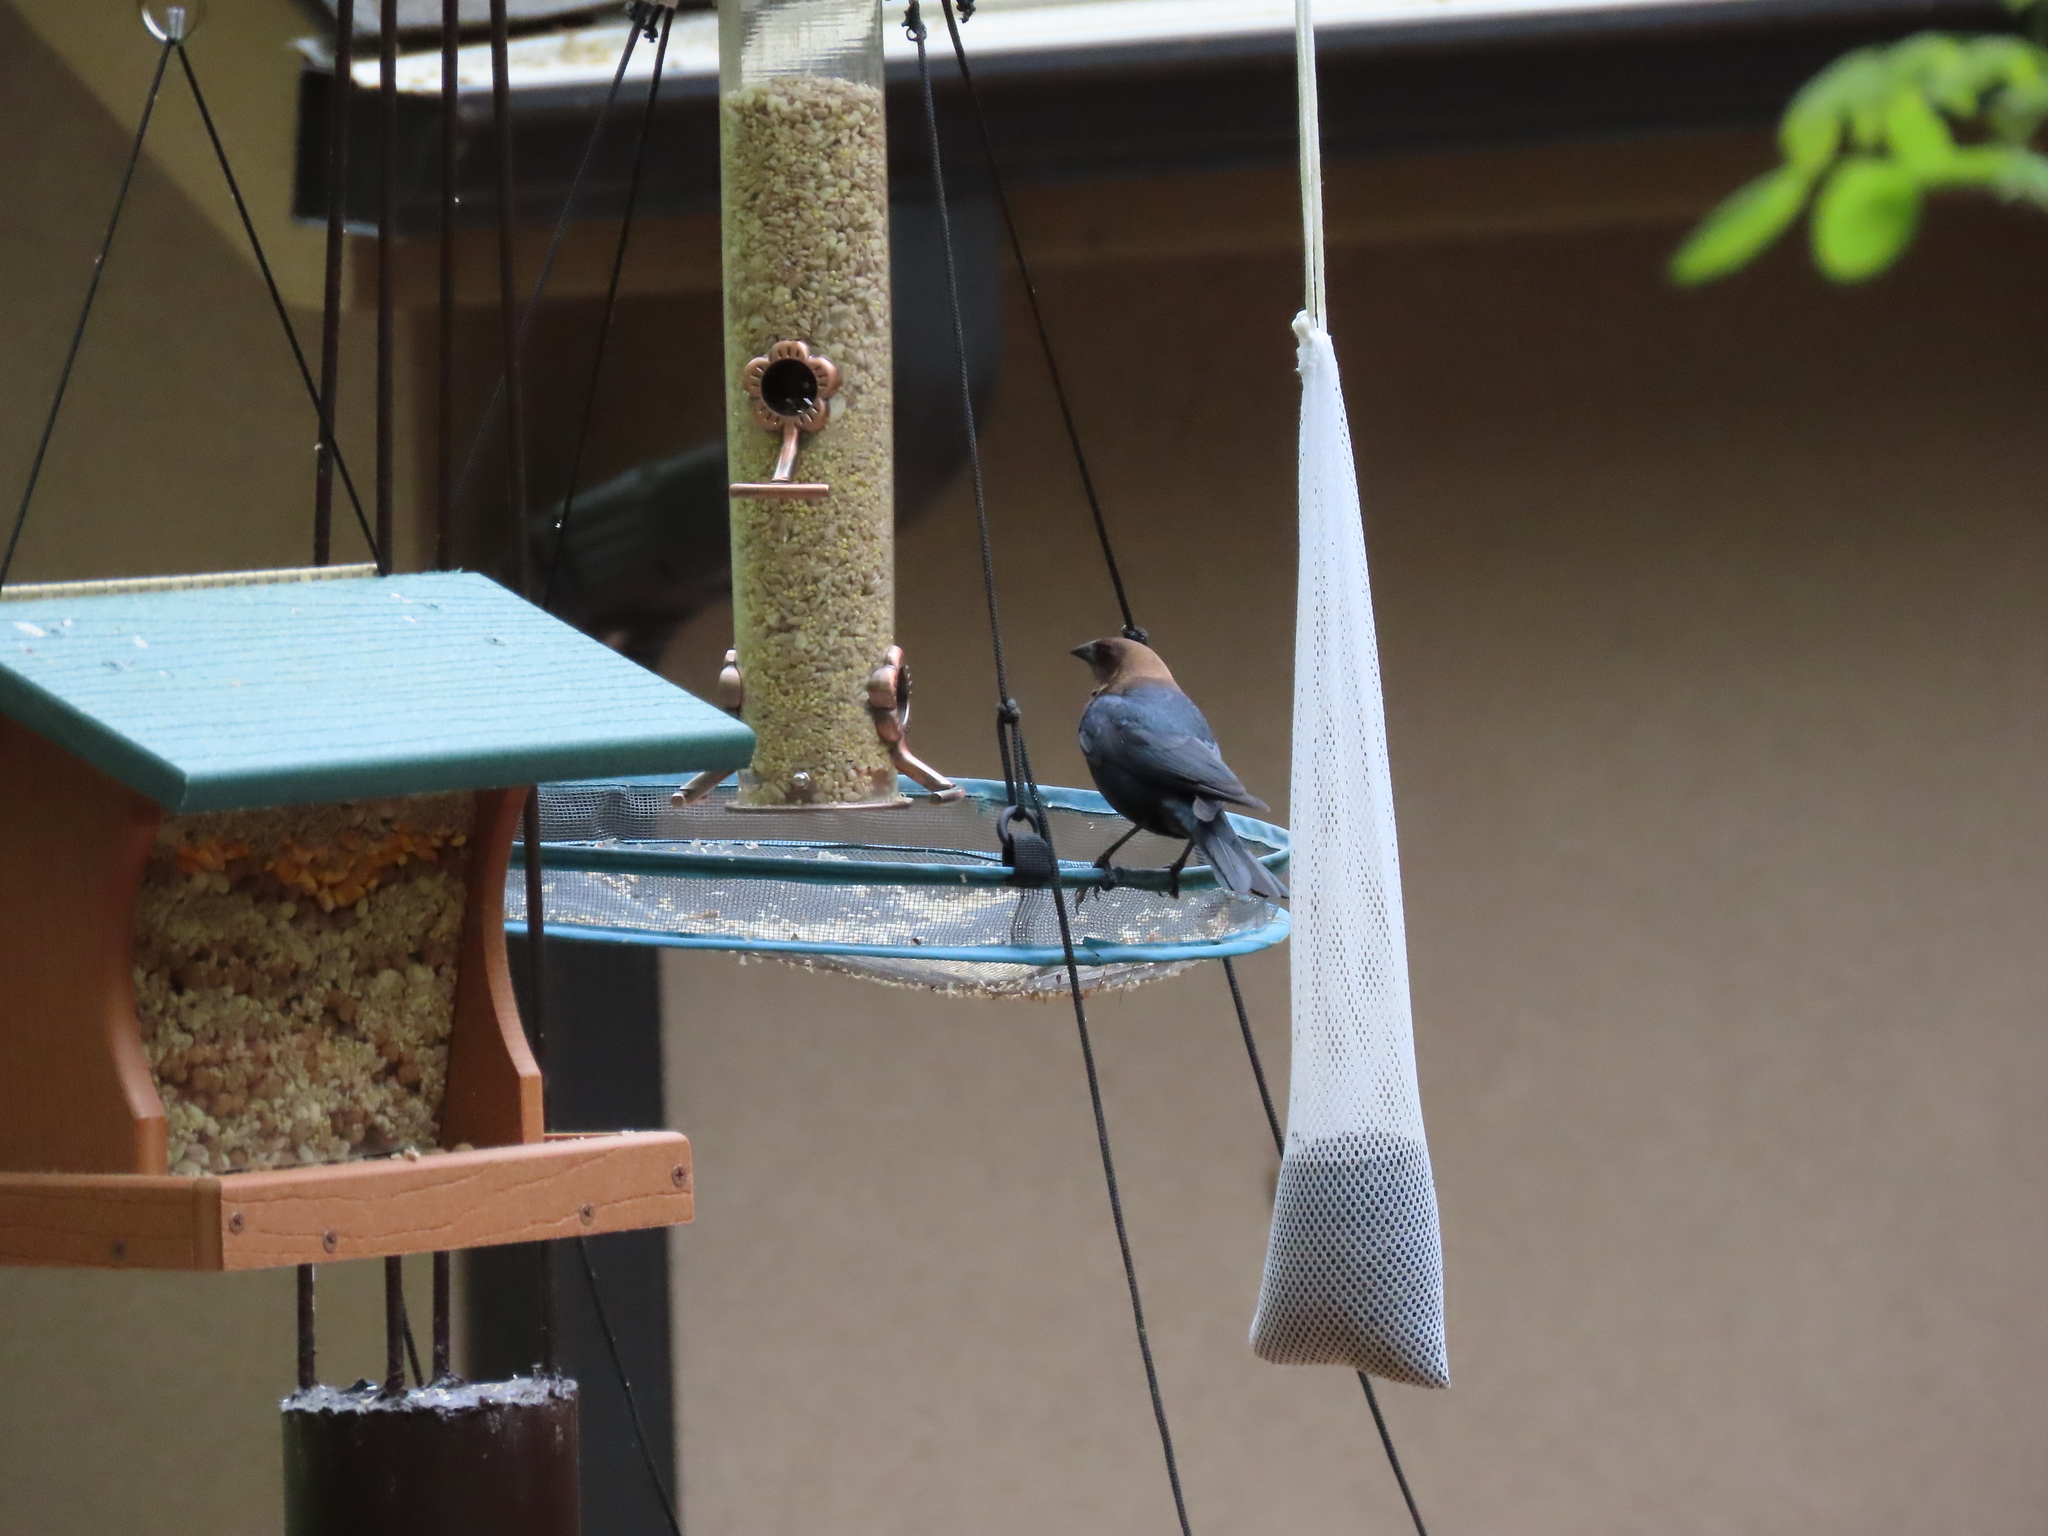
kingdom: Animalia
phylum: Chordata
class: Aves
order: Passeriformes
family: Icteridae
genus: Molothrus
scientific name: Molothrus ater
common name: Brown-headed cowbird
